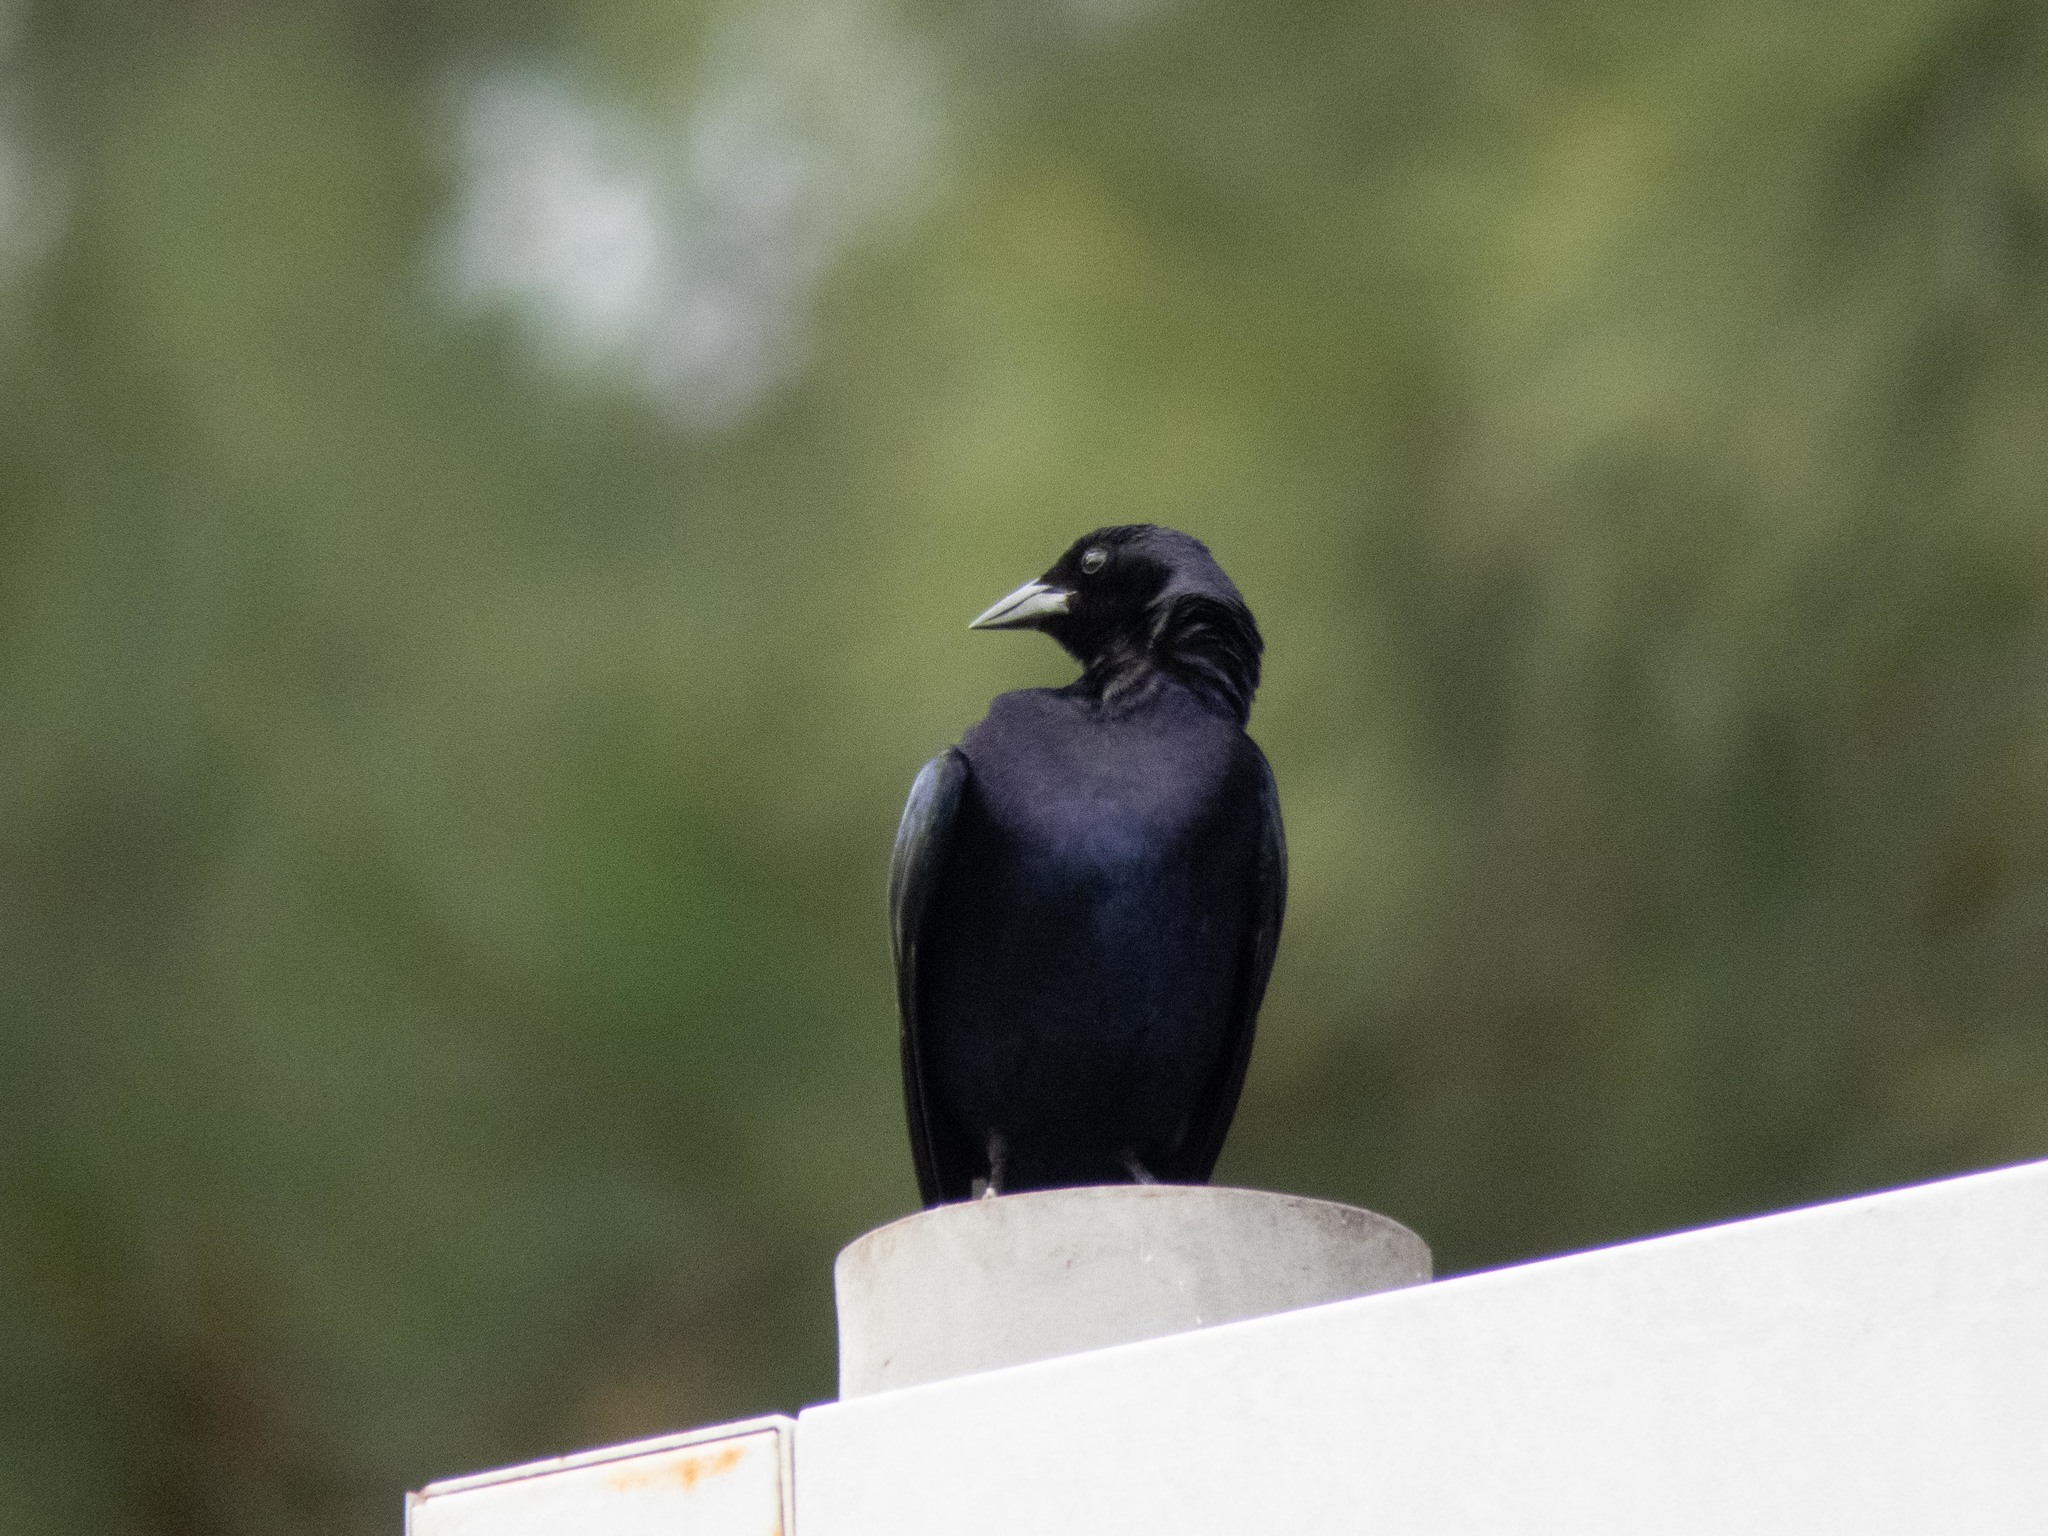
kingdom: Animalia
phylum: Chordata
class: Aves
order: Passeriformes
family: Icteridae
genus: Molothrus
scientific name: Molothrus bonariensis
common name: Shiny cowbird
